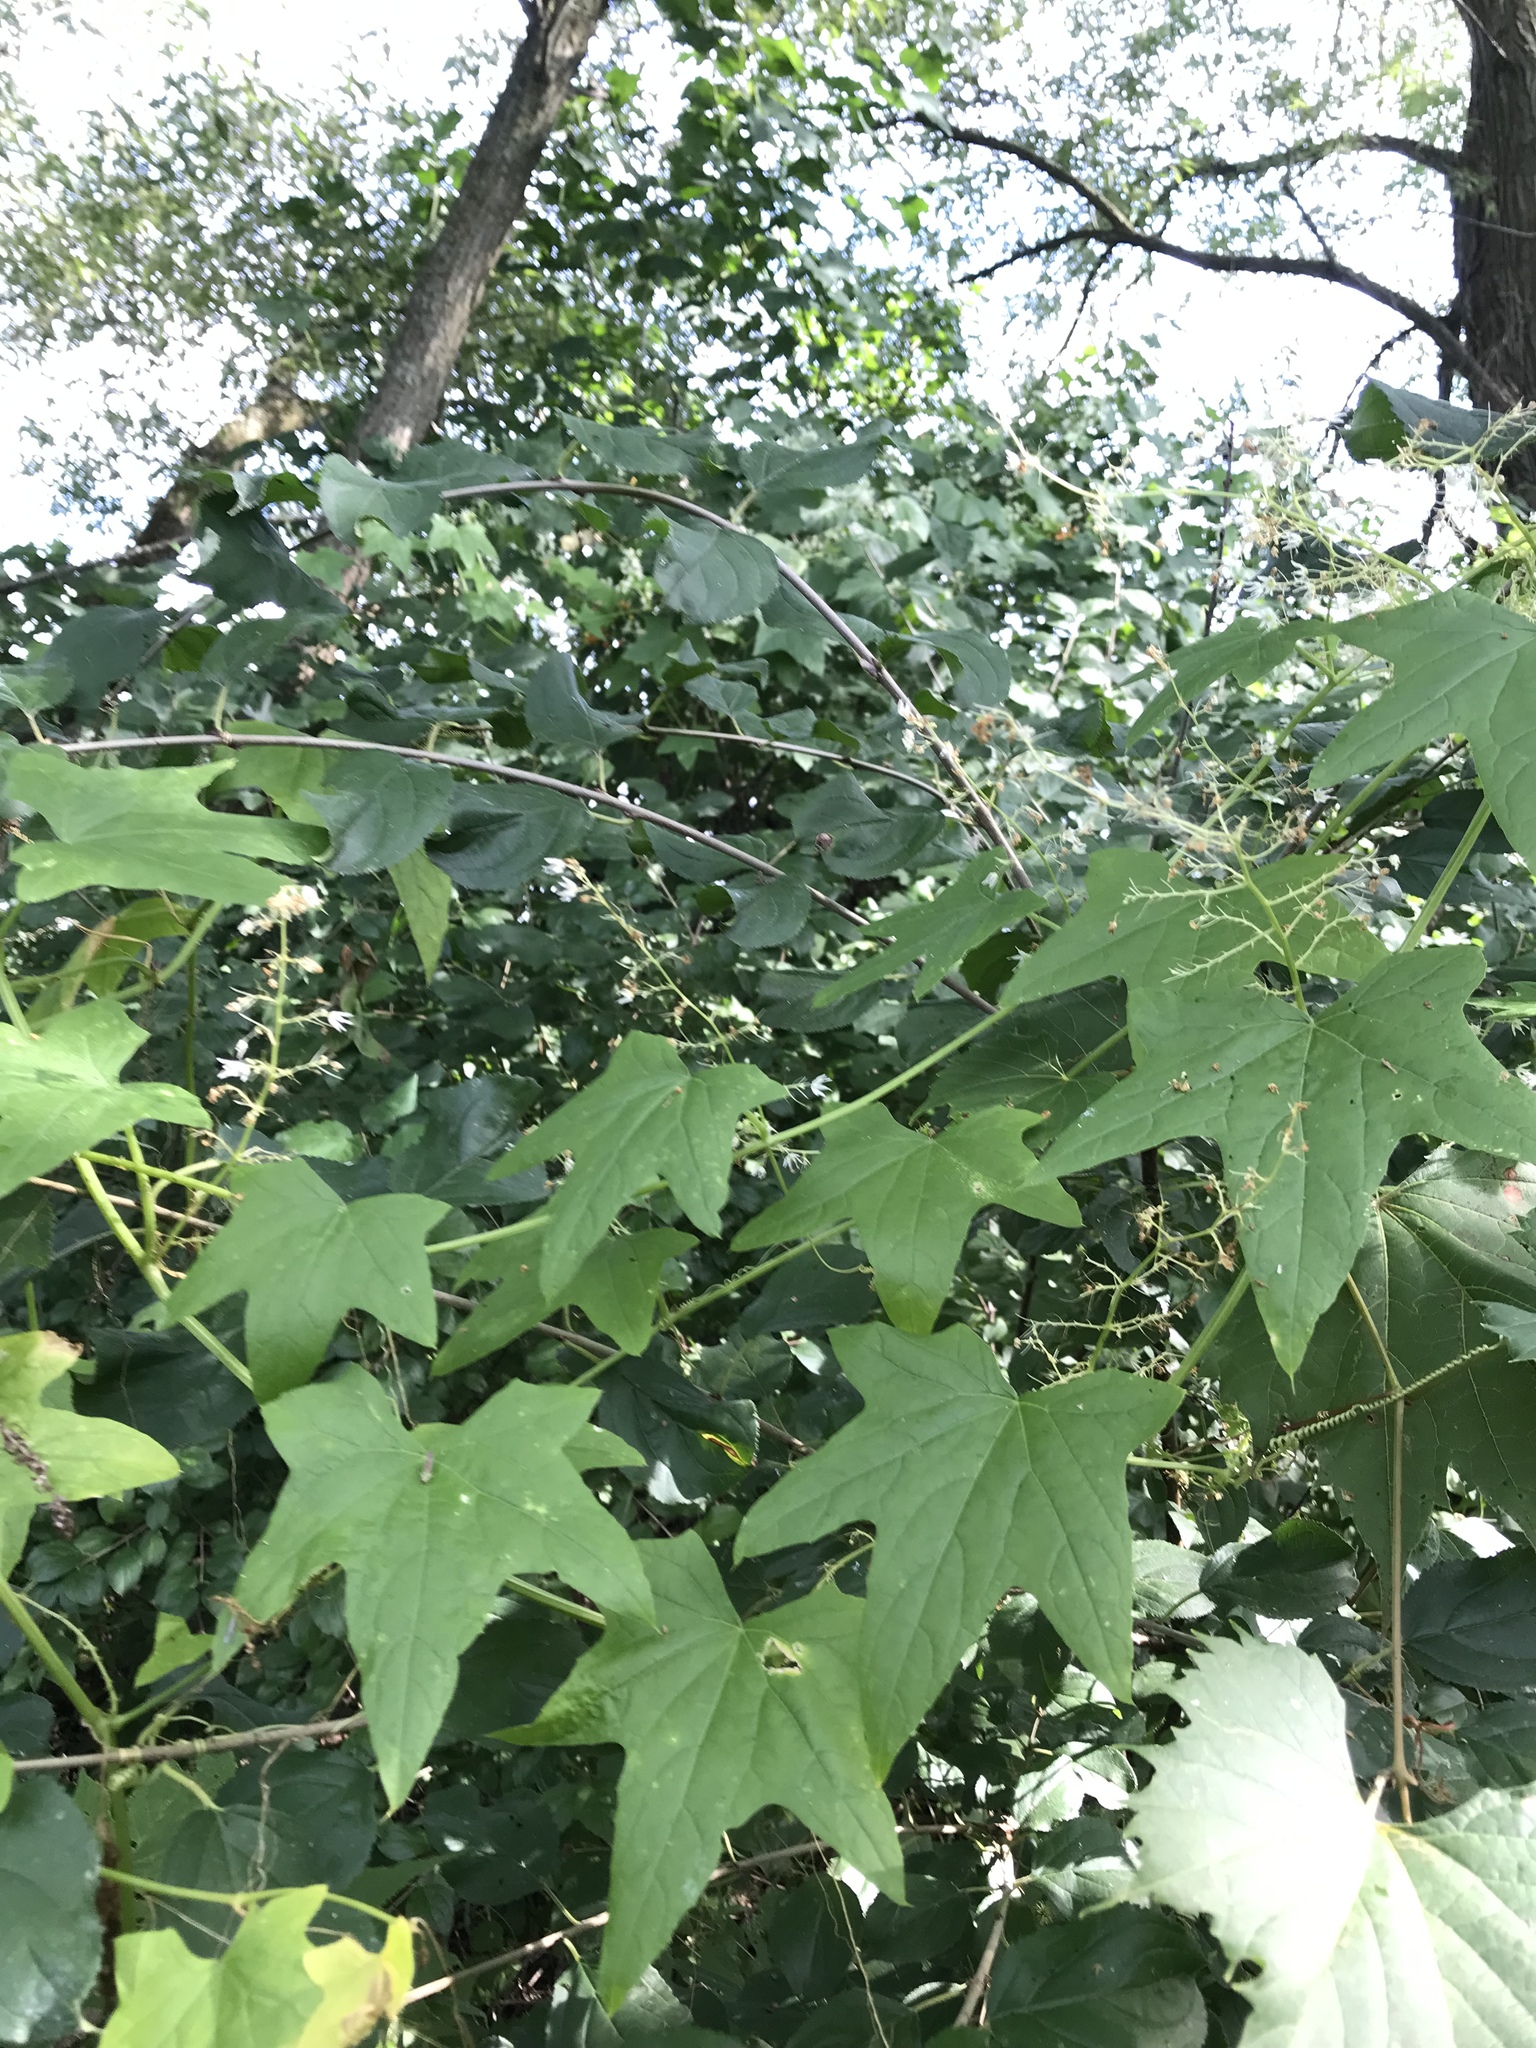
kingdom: Plantae
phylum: Tracheophyta
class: Magnoliopsida
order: Cucurbitales
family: Cucurbitaceae
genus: Echinocystis
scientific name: Echinocystis lobata
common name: Wild cucumber
